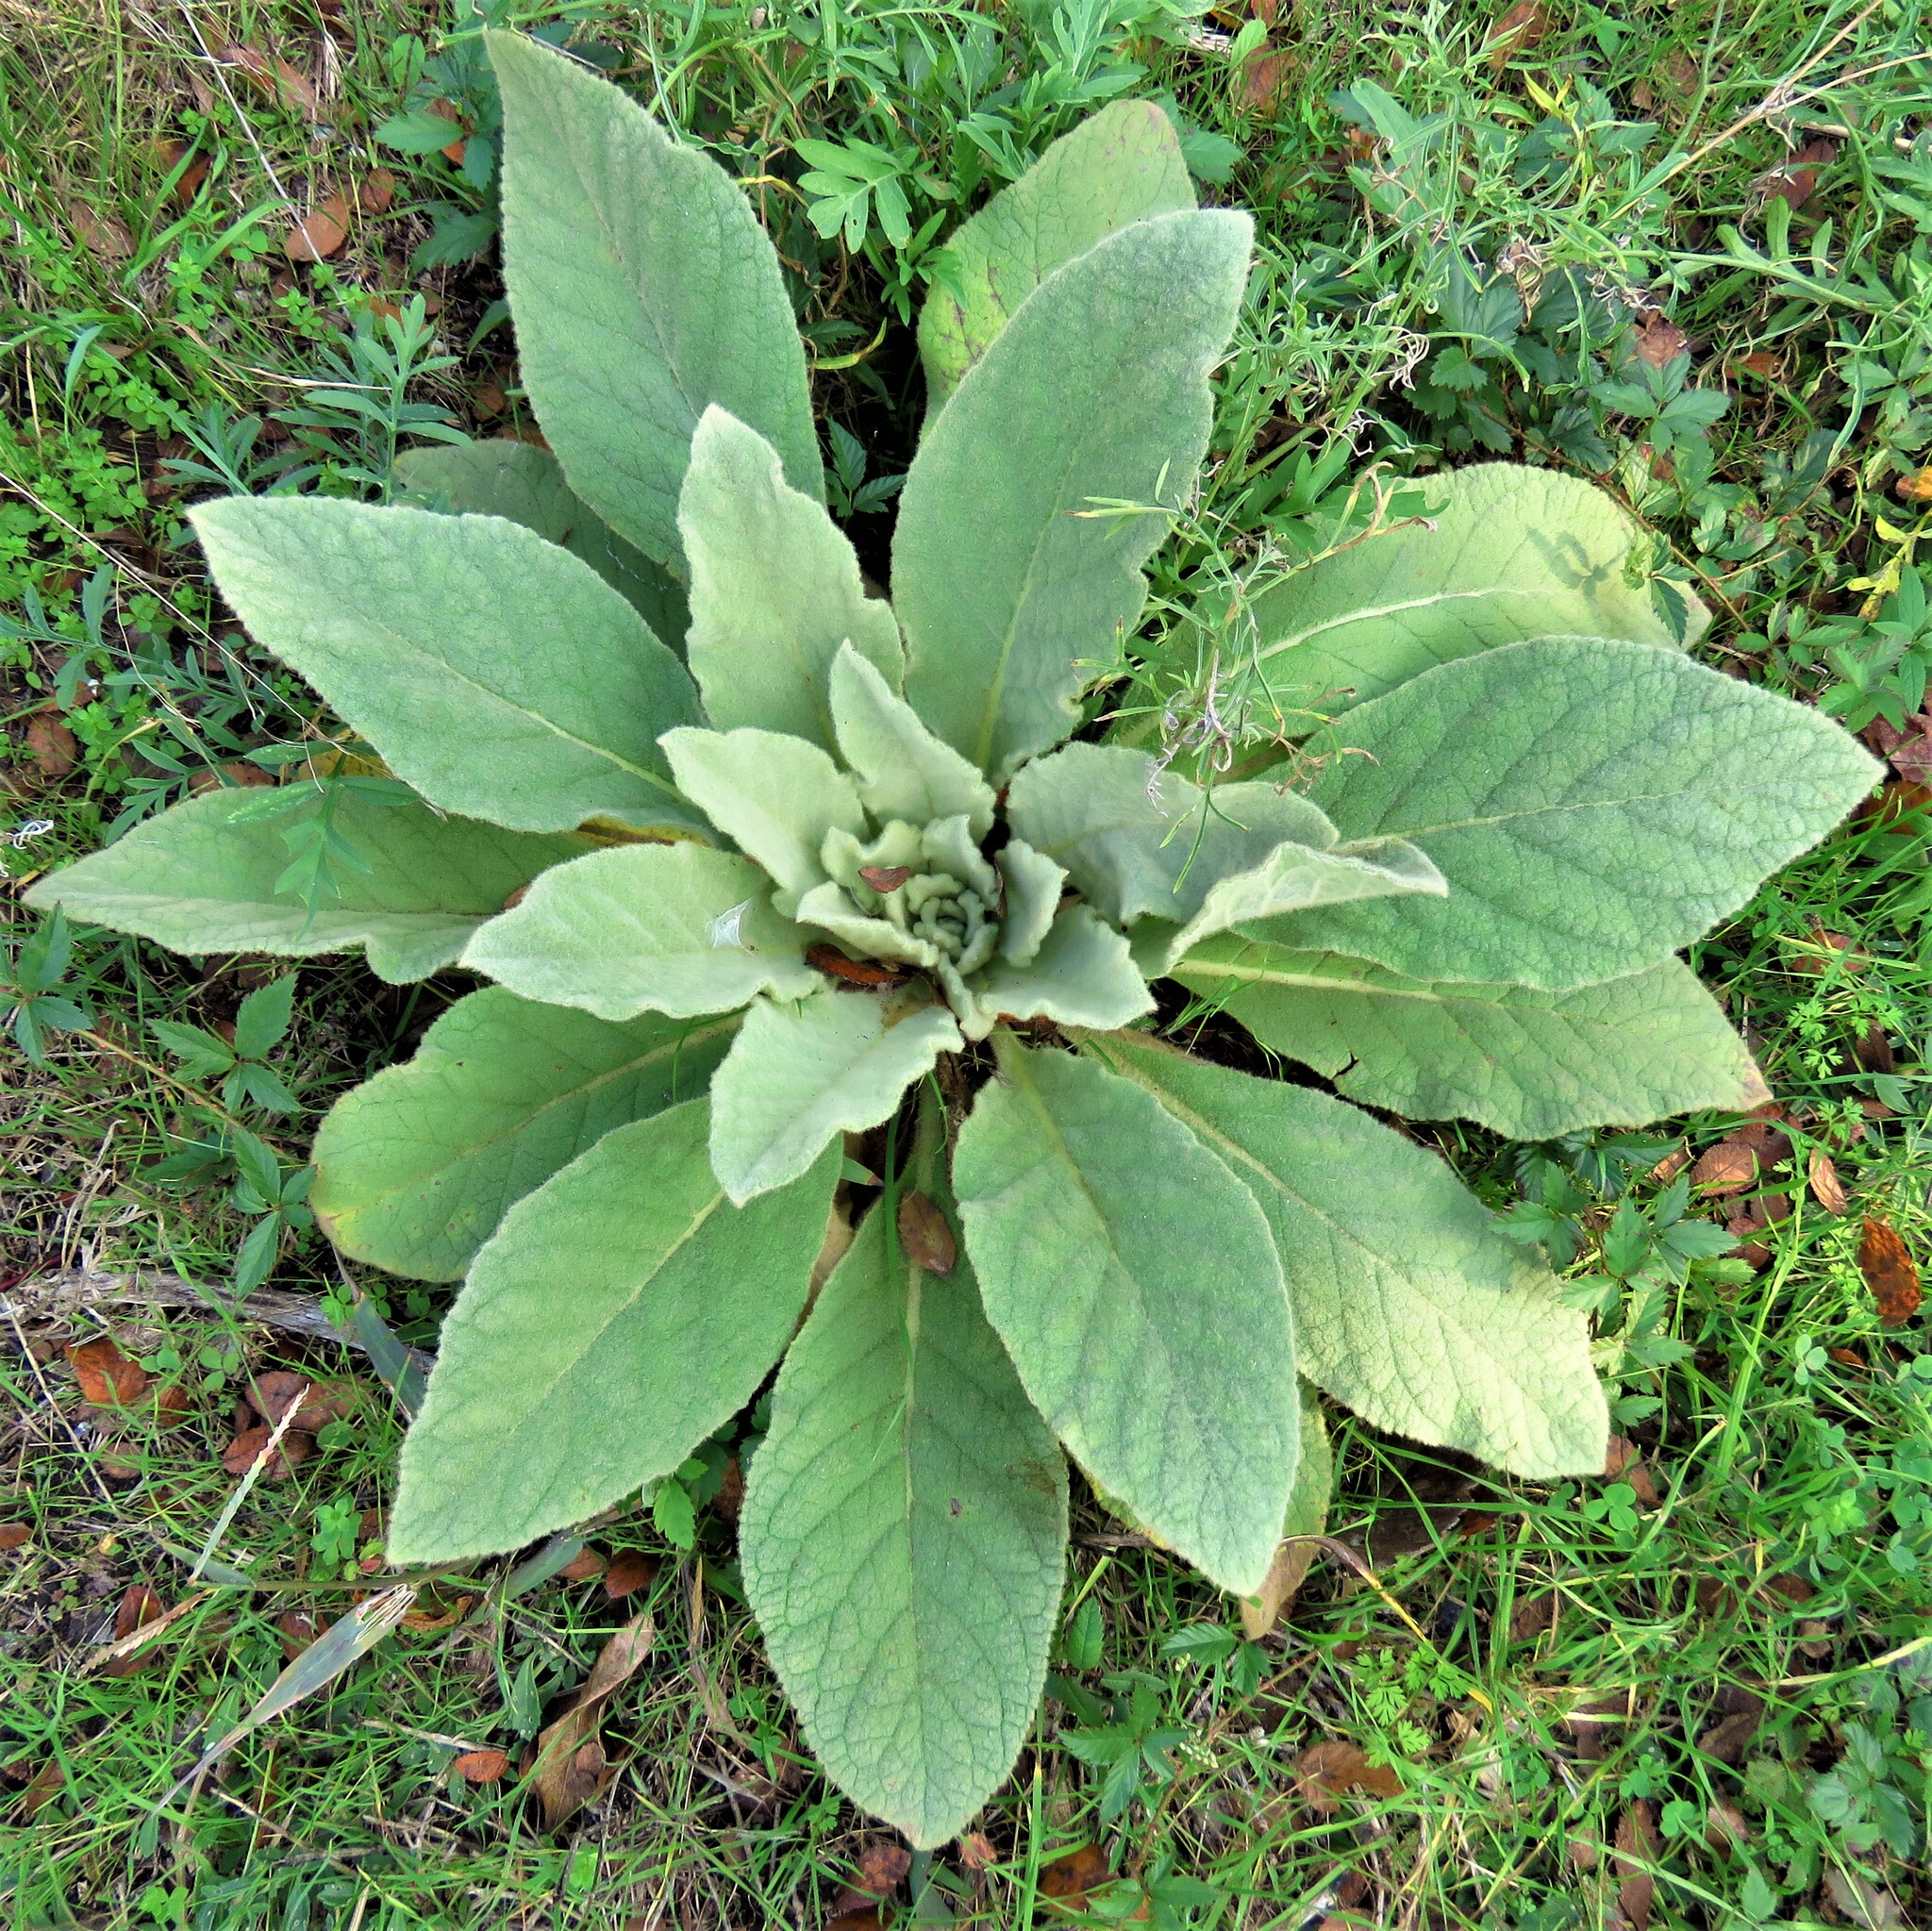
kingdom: Plantae
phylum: Tracheophyta
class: Magnoliopsida
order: Lamiales
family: Scrophulariaceae
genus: Verbascum
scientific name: Verbascum thapsus
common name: Common mullein
